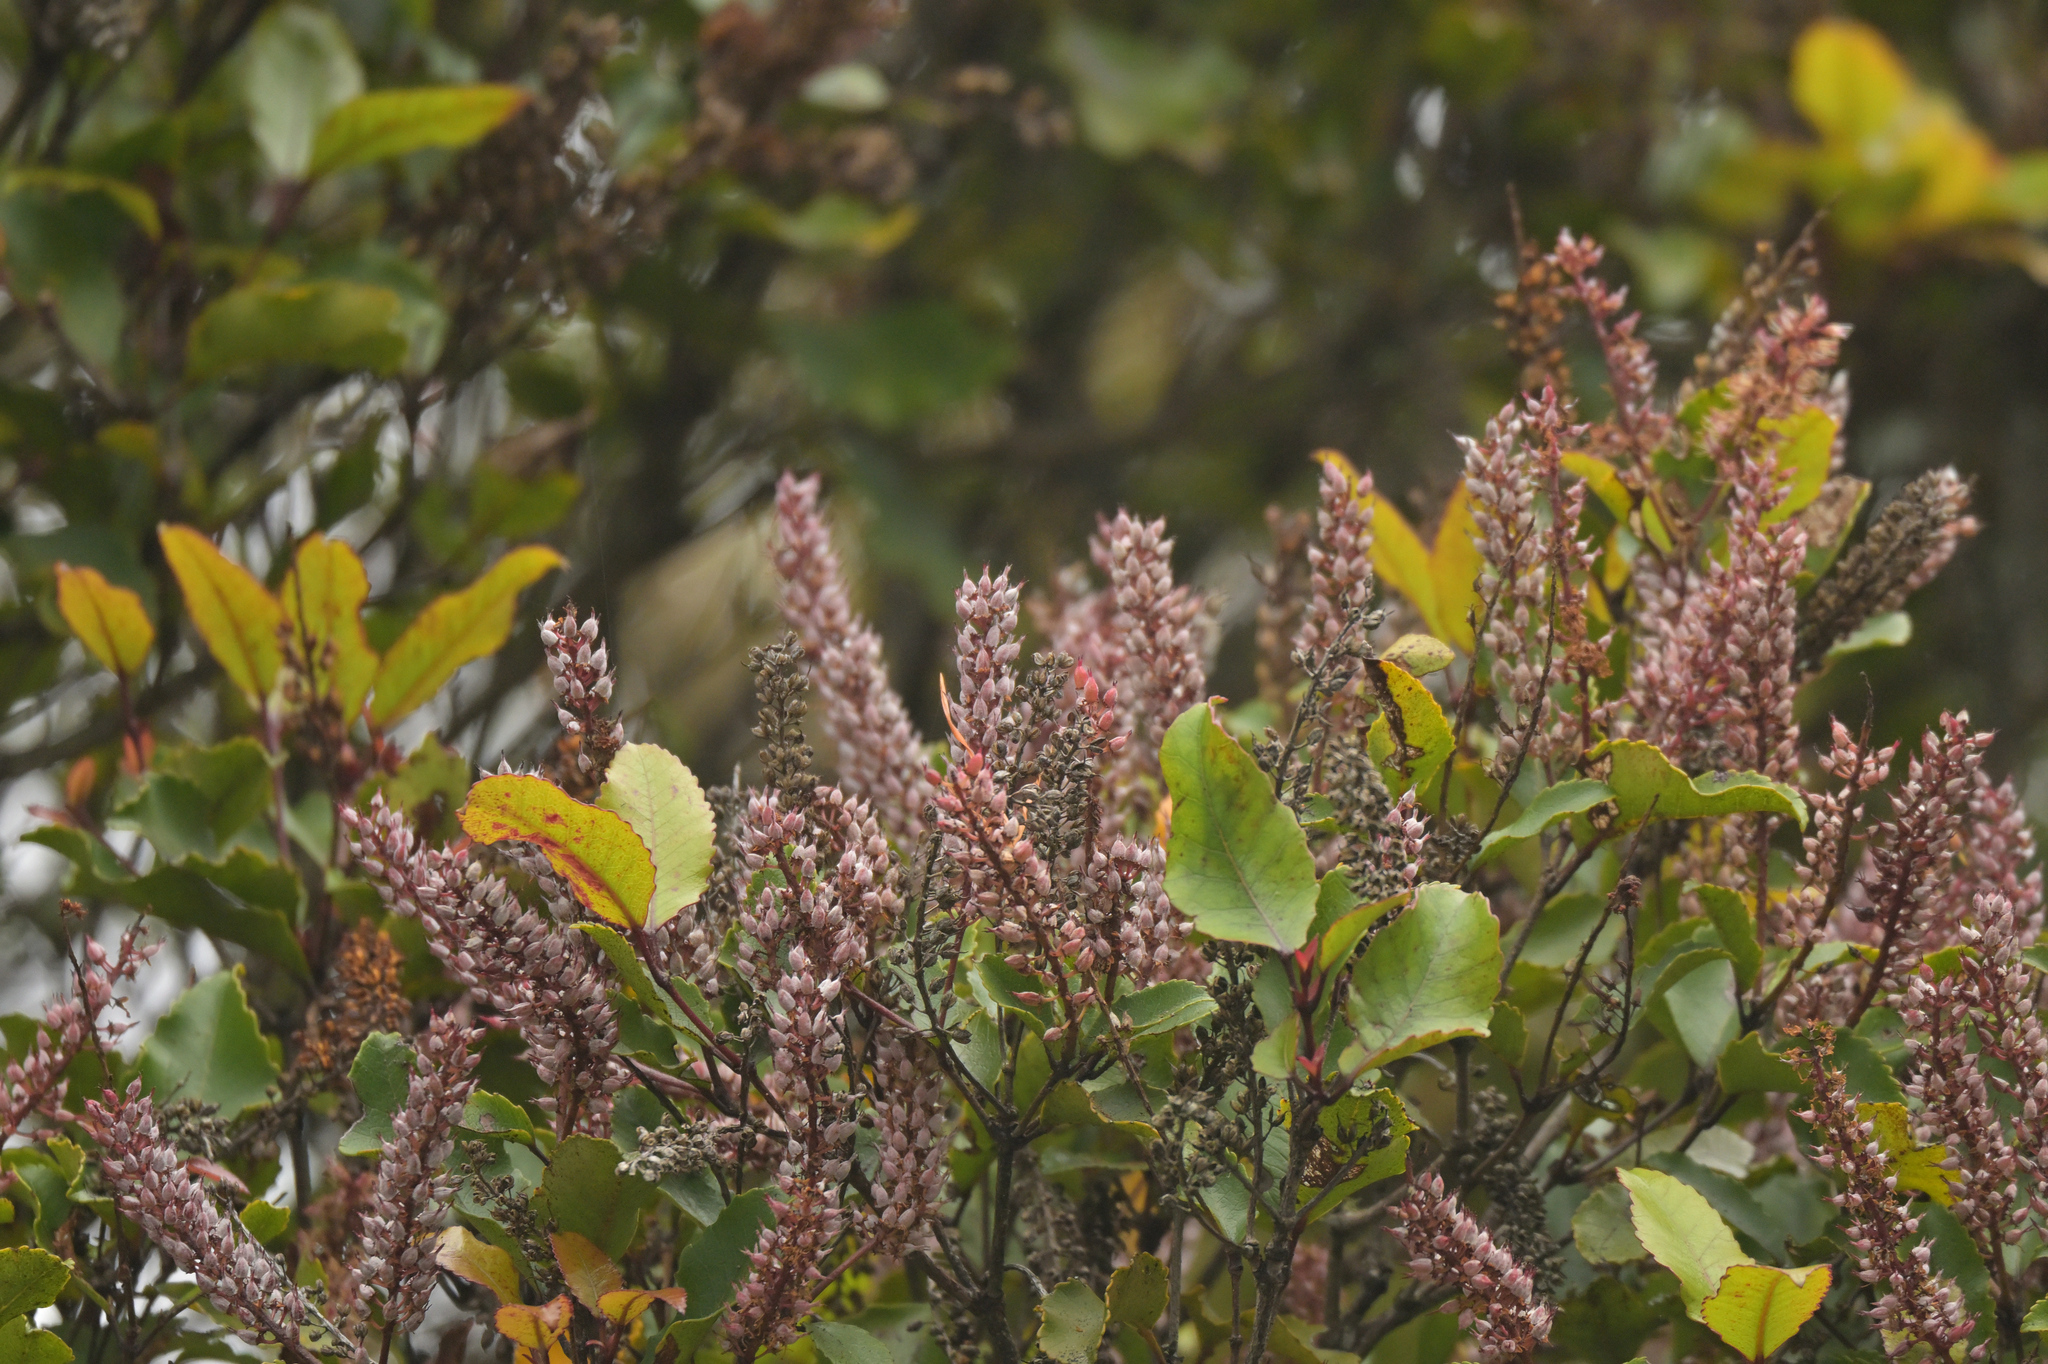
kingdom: Plantae
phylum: Tracheophyta
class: Magnoliopsida
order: Oxalidales
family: Cunoniaceae
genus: Pterophylla
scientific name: Pterophylla racemosa
